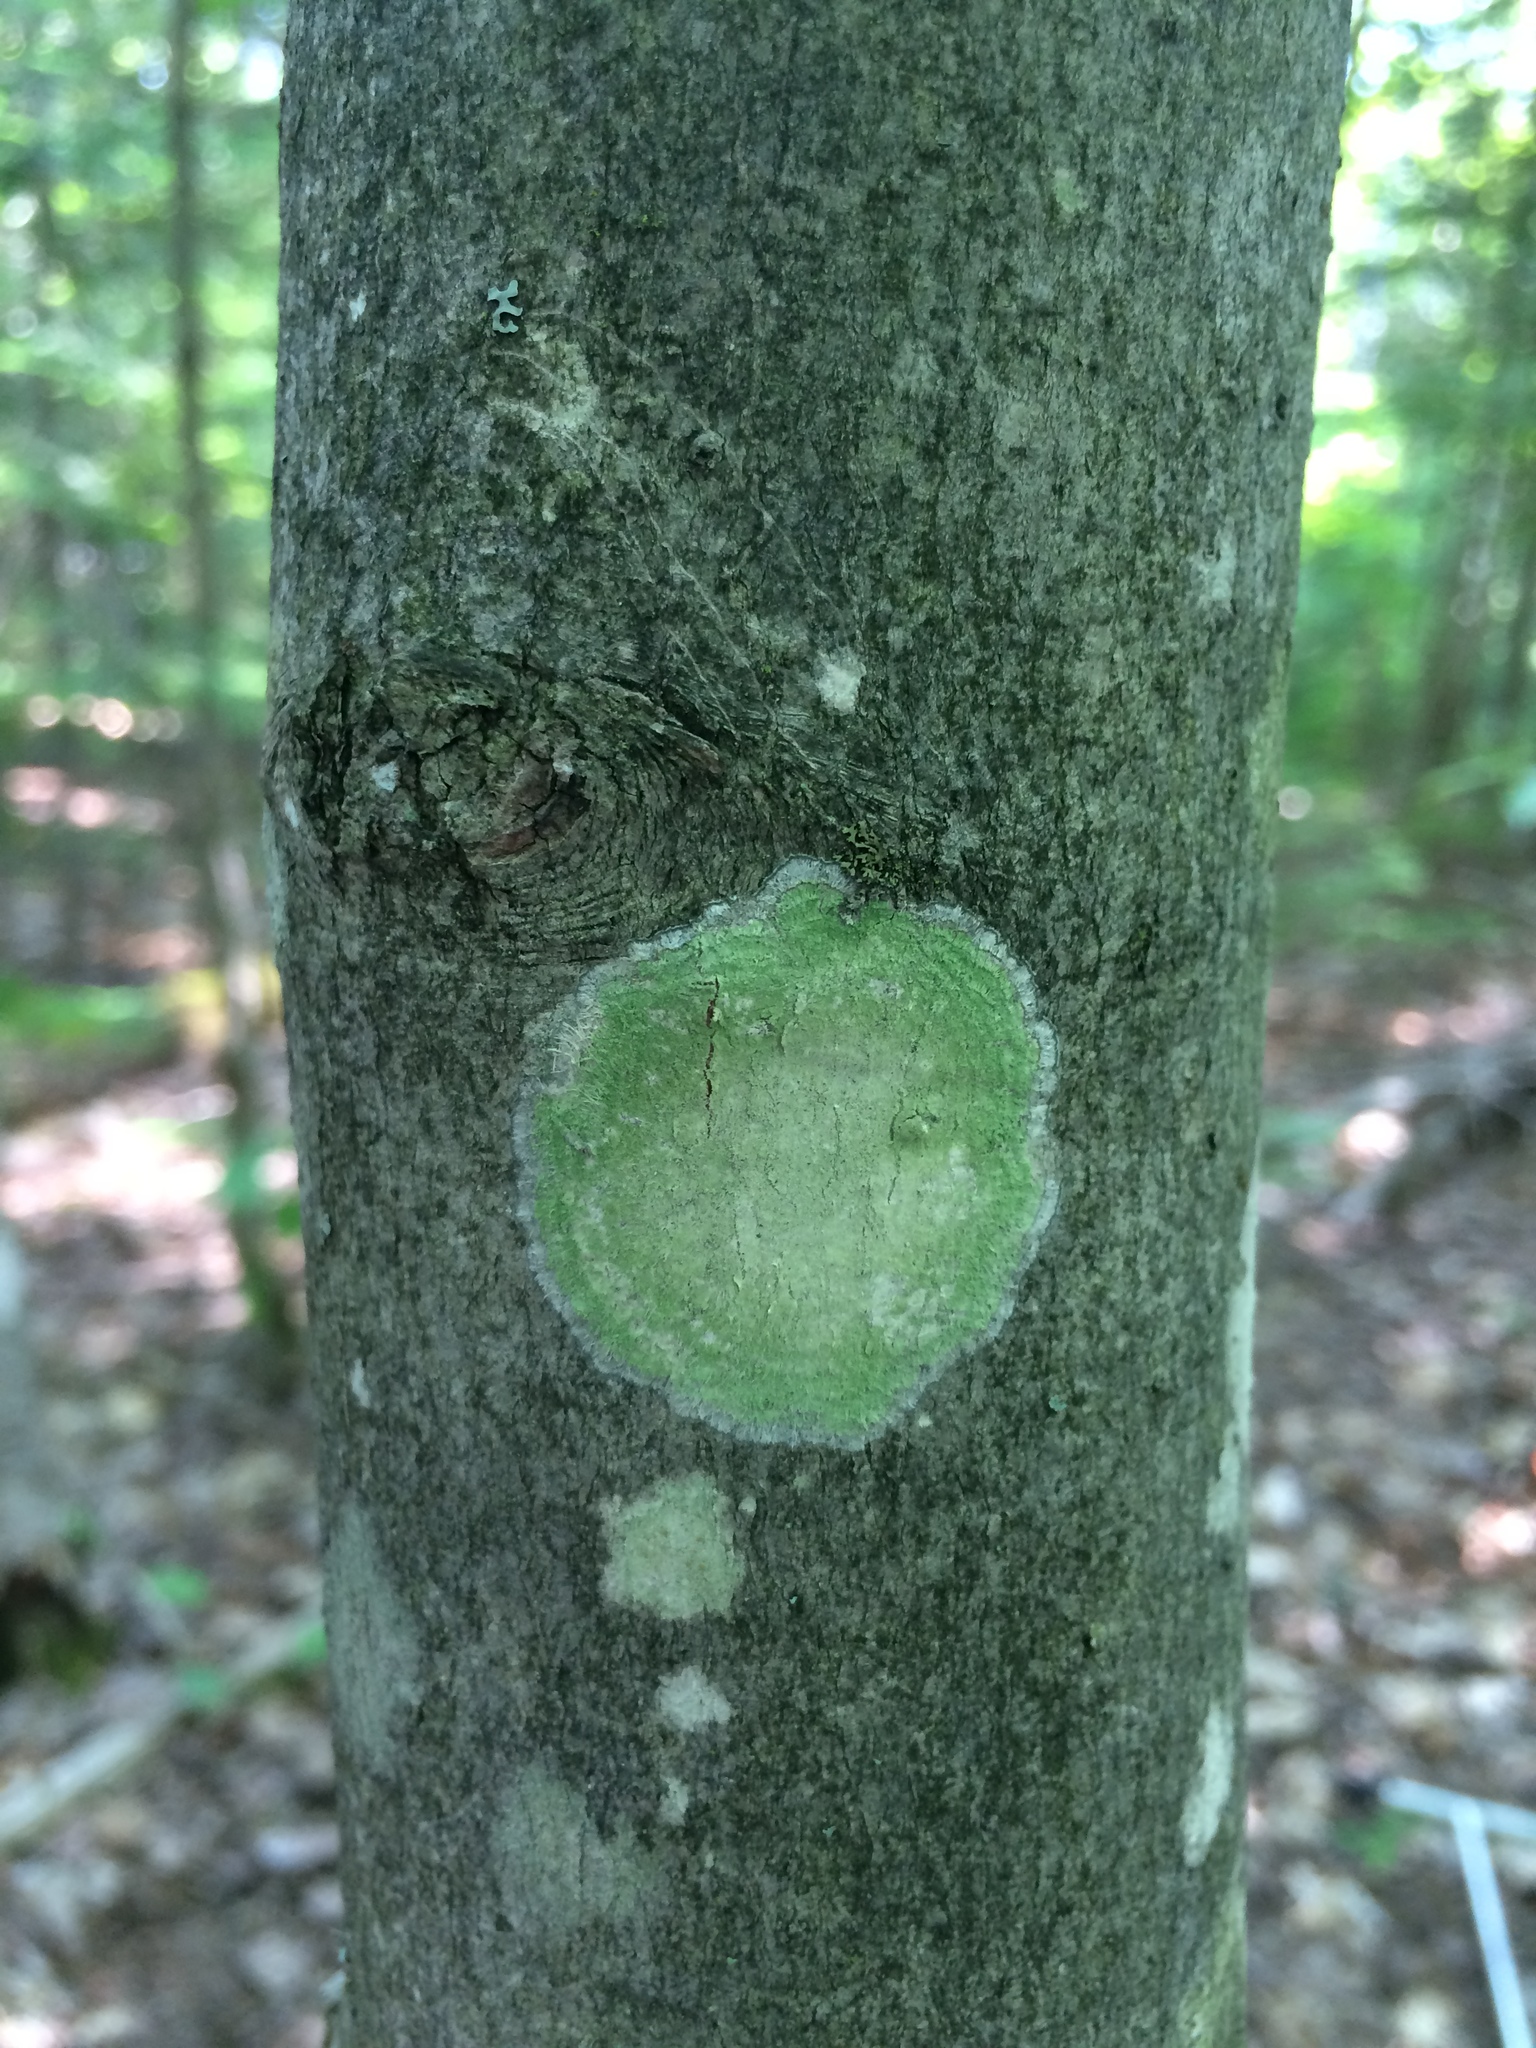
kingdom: Fungi
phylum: Ascomycota
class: Lecanoromycetes
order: Pertusariales
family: Pertusariaceae
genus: Verseghya
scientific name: Verseghya thysanophora
